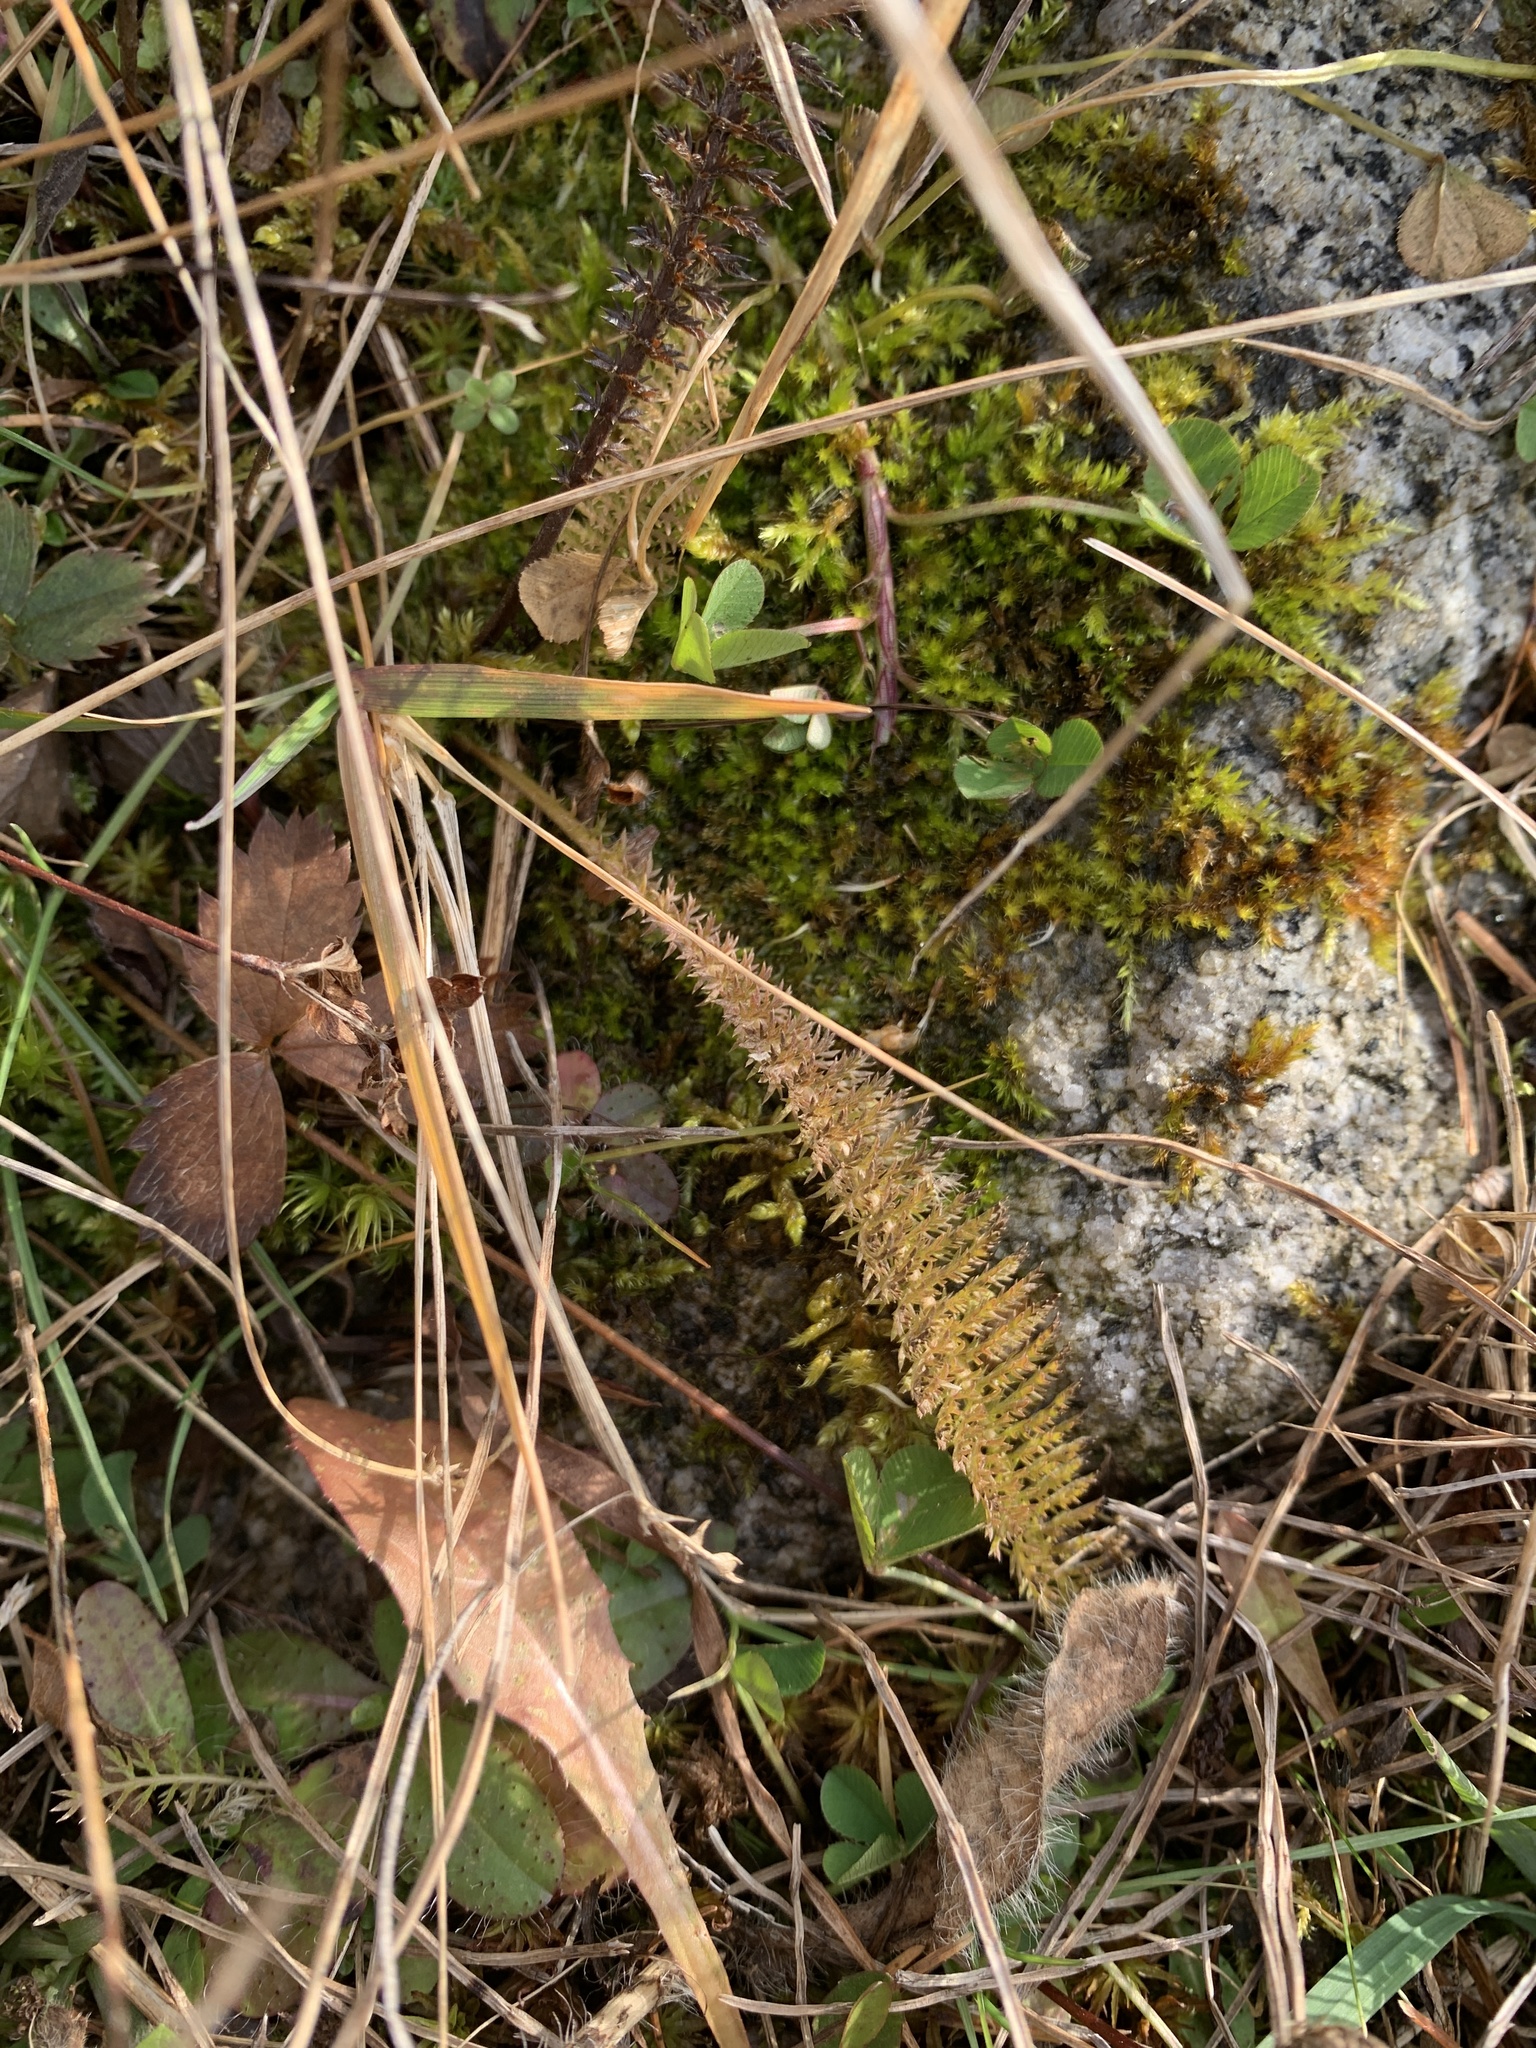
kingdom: Plantae
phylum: Tracheophyta
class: Magnoliopsida
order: Asterales
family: Asteraceae
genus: Achillea
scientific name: Achillea millefolium
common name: Yarrow
